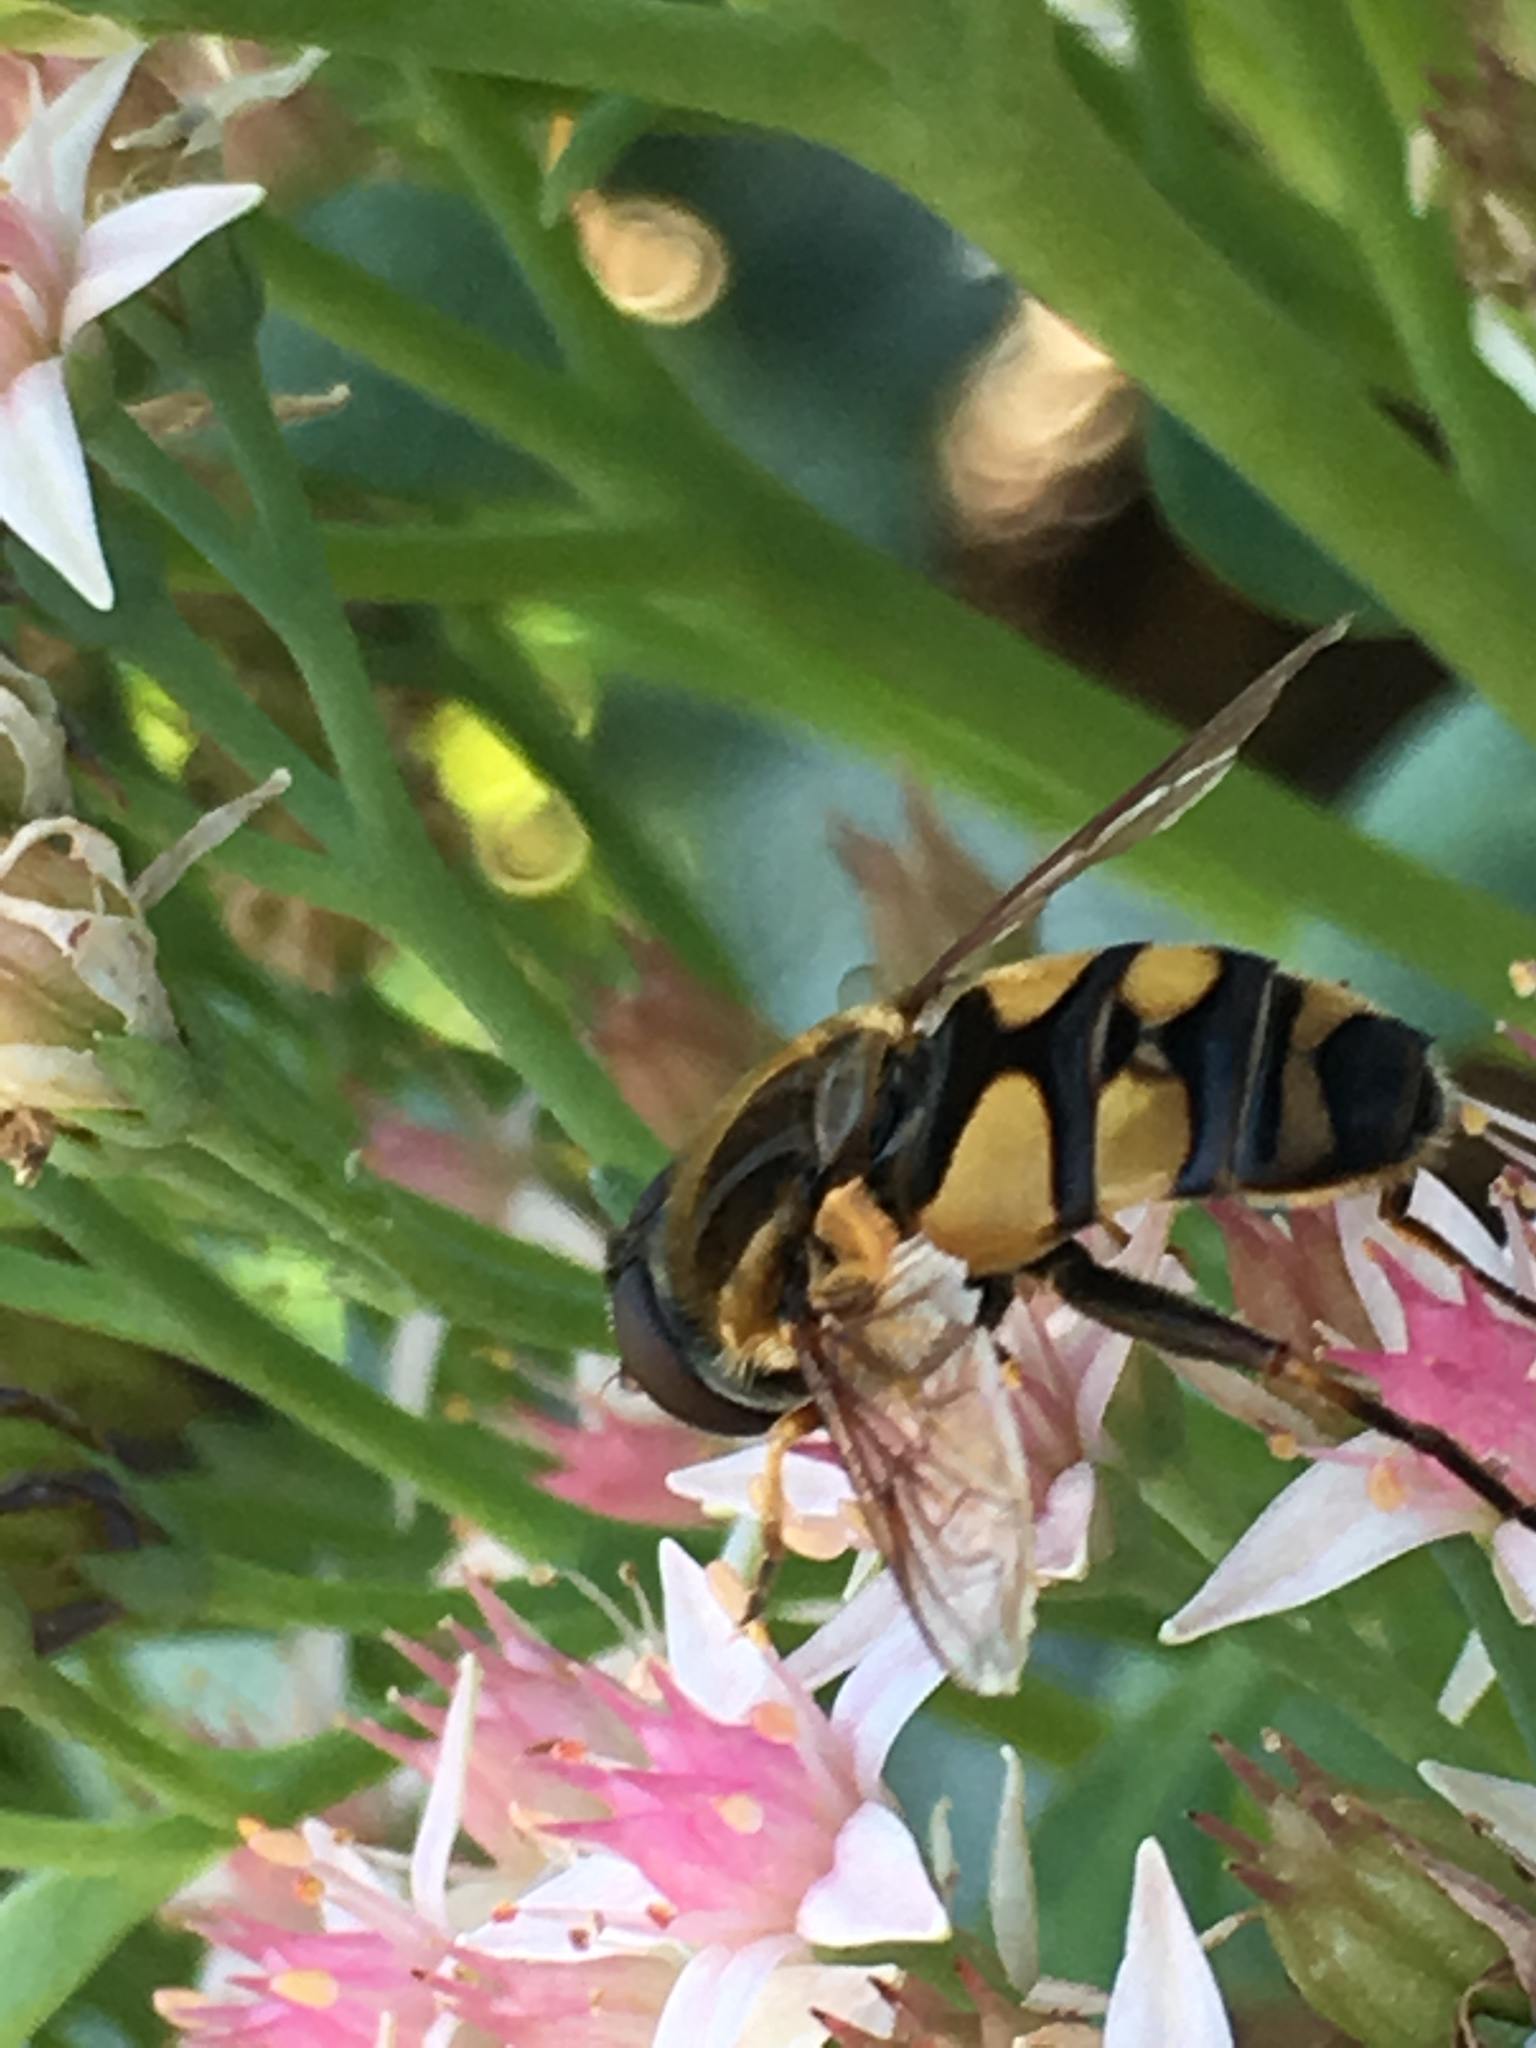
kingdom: Animalia
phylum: Arthropoda
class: Insecta
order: Diptera
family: Syrphidae
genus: Helophilus
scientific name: Helophilus fasciatus
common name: Narrow-headed marsh fly
